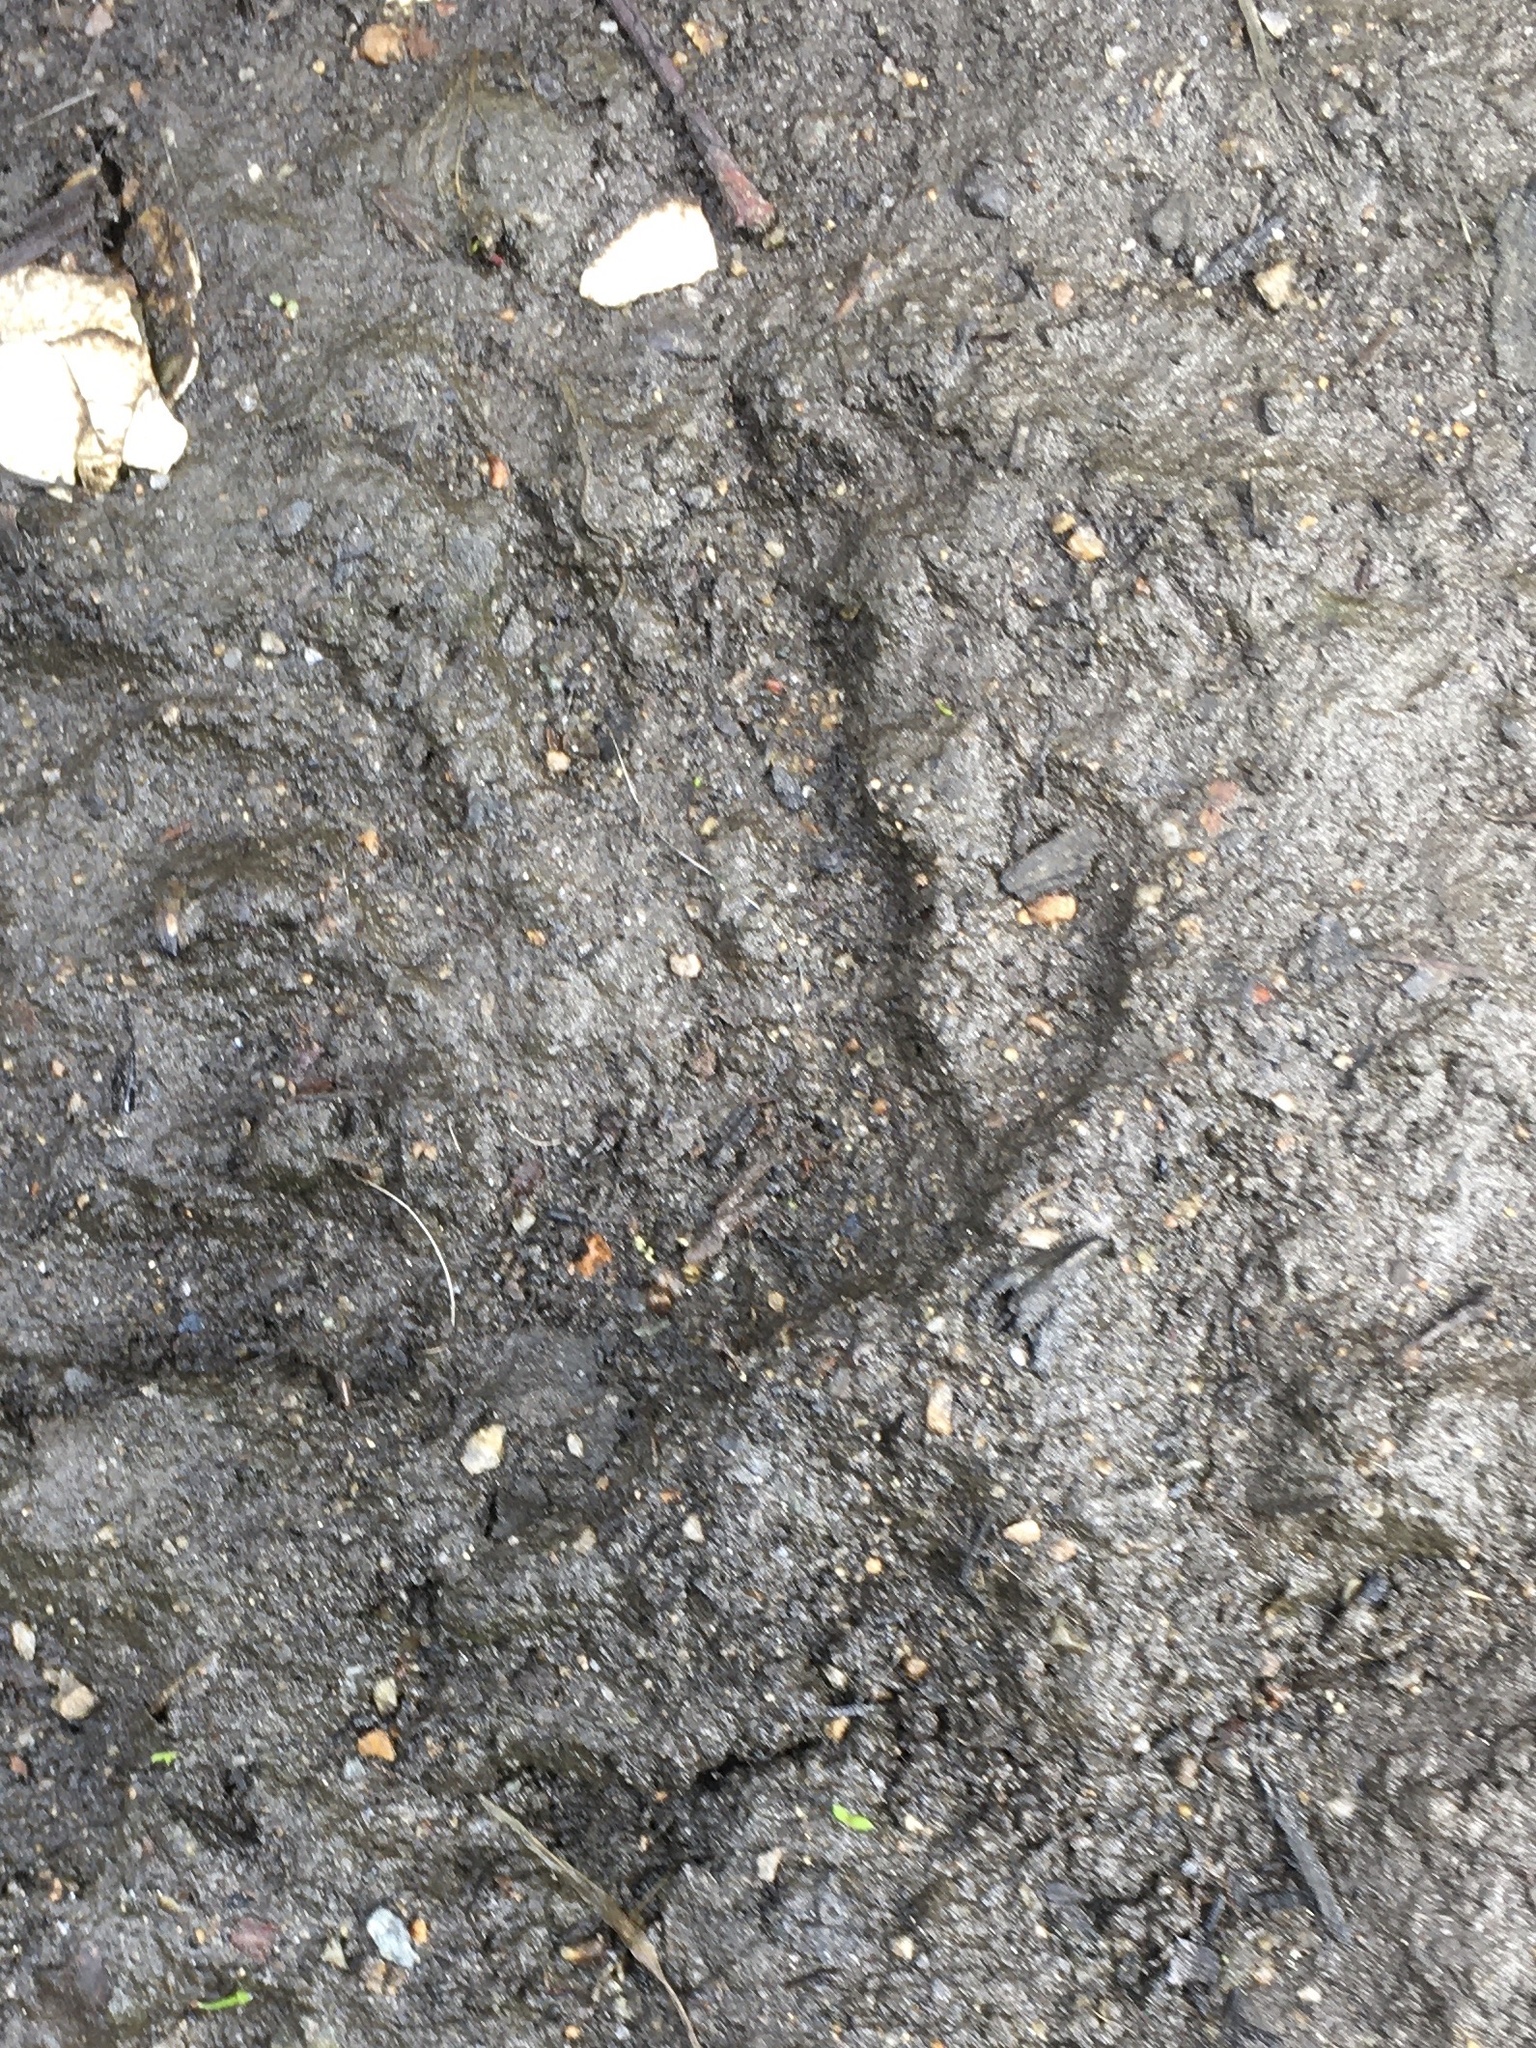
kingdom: Animalia
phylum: Chordata
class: Mammalia
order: Carnivora
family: Procyonidae
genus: Procyon
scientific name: Procyon lotor
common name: Raccoon
